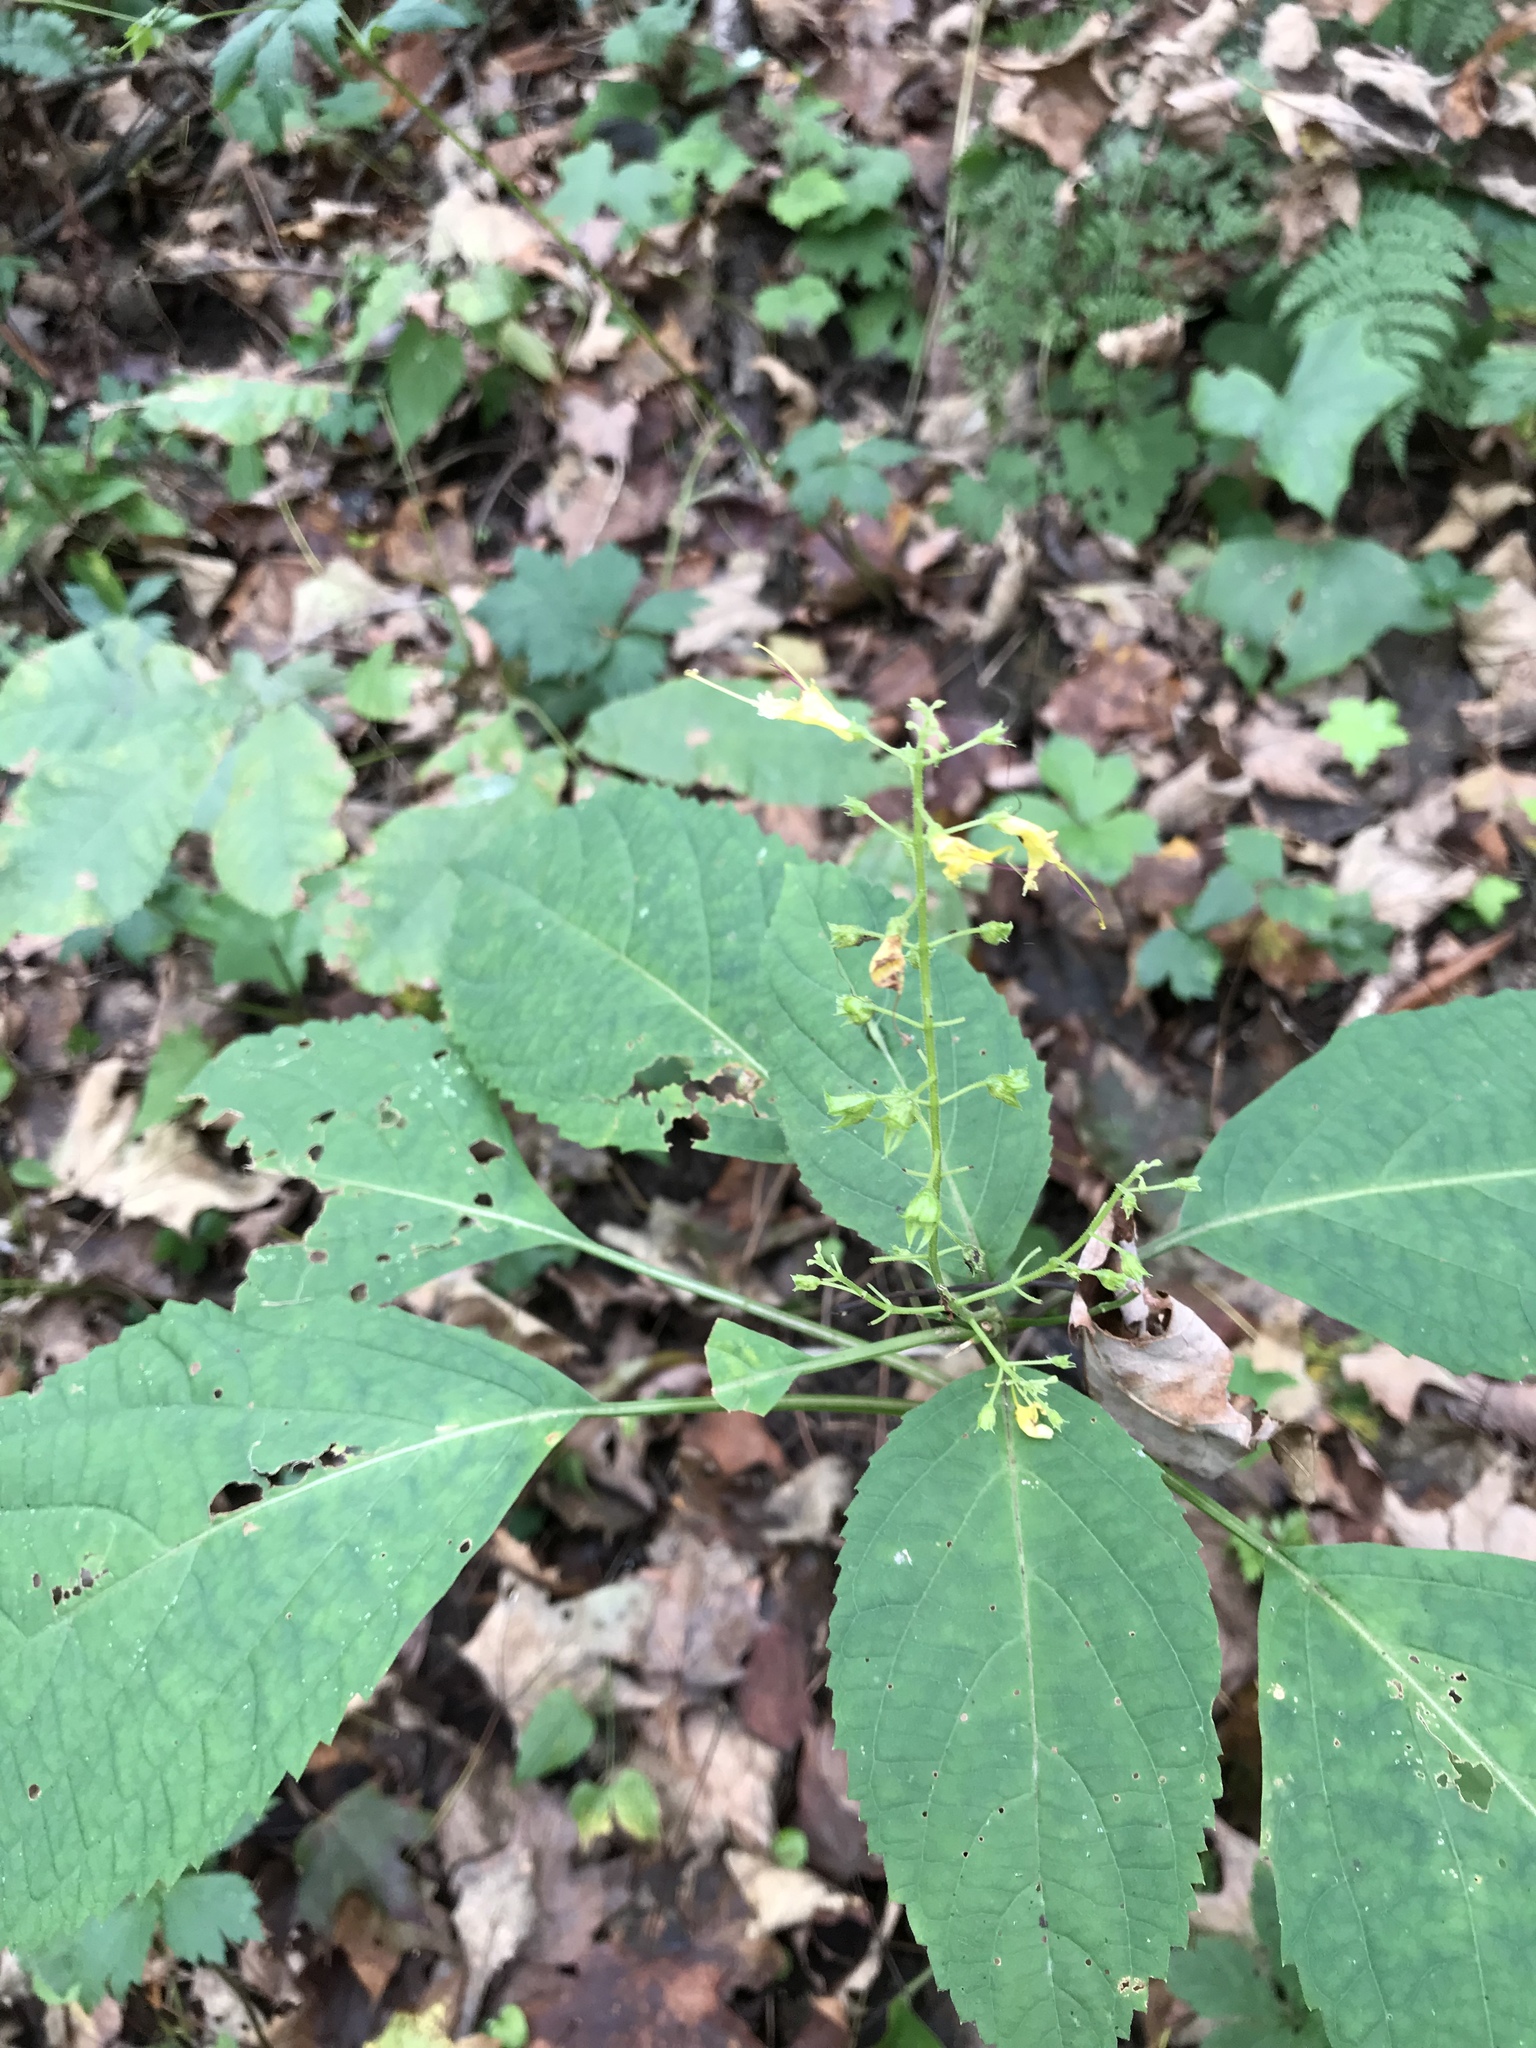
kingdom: Plantae
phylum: Tracheophyta
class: Magnoliopsida
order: Lamiales
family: Lamiaceae
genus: Collinsonia
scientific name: Collinsonia canadensis
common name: Northern horsebalm
